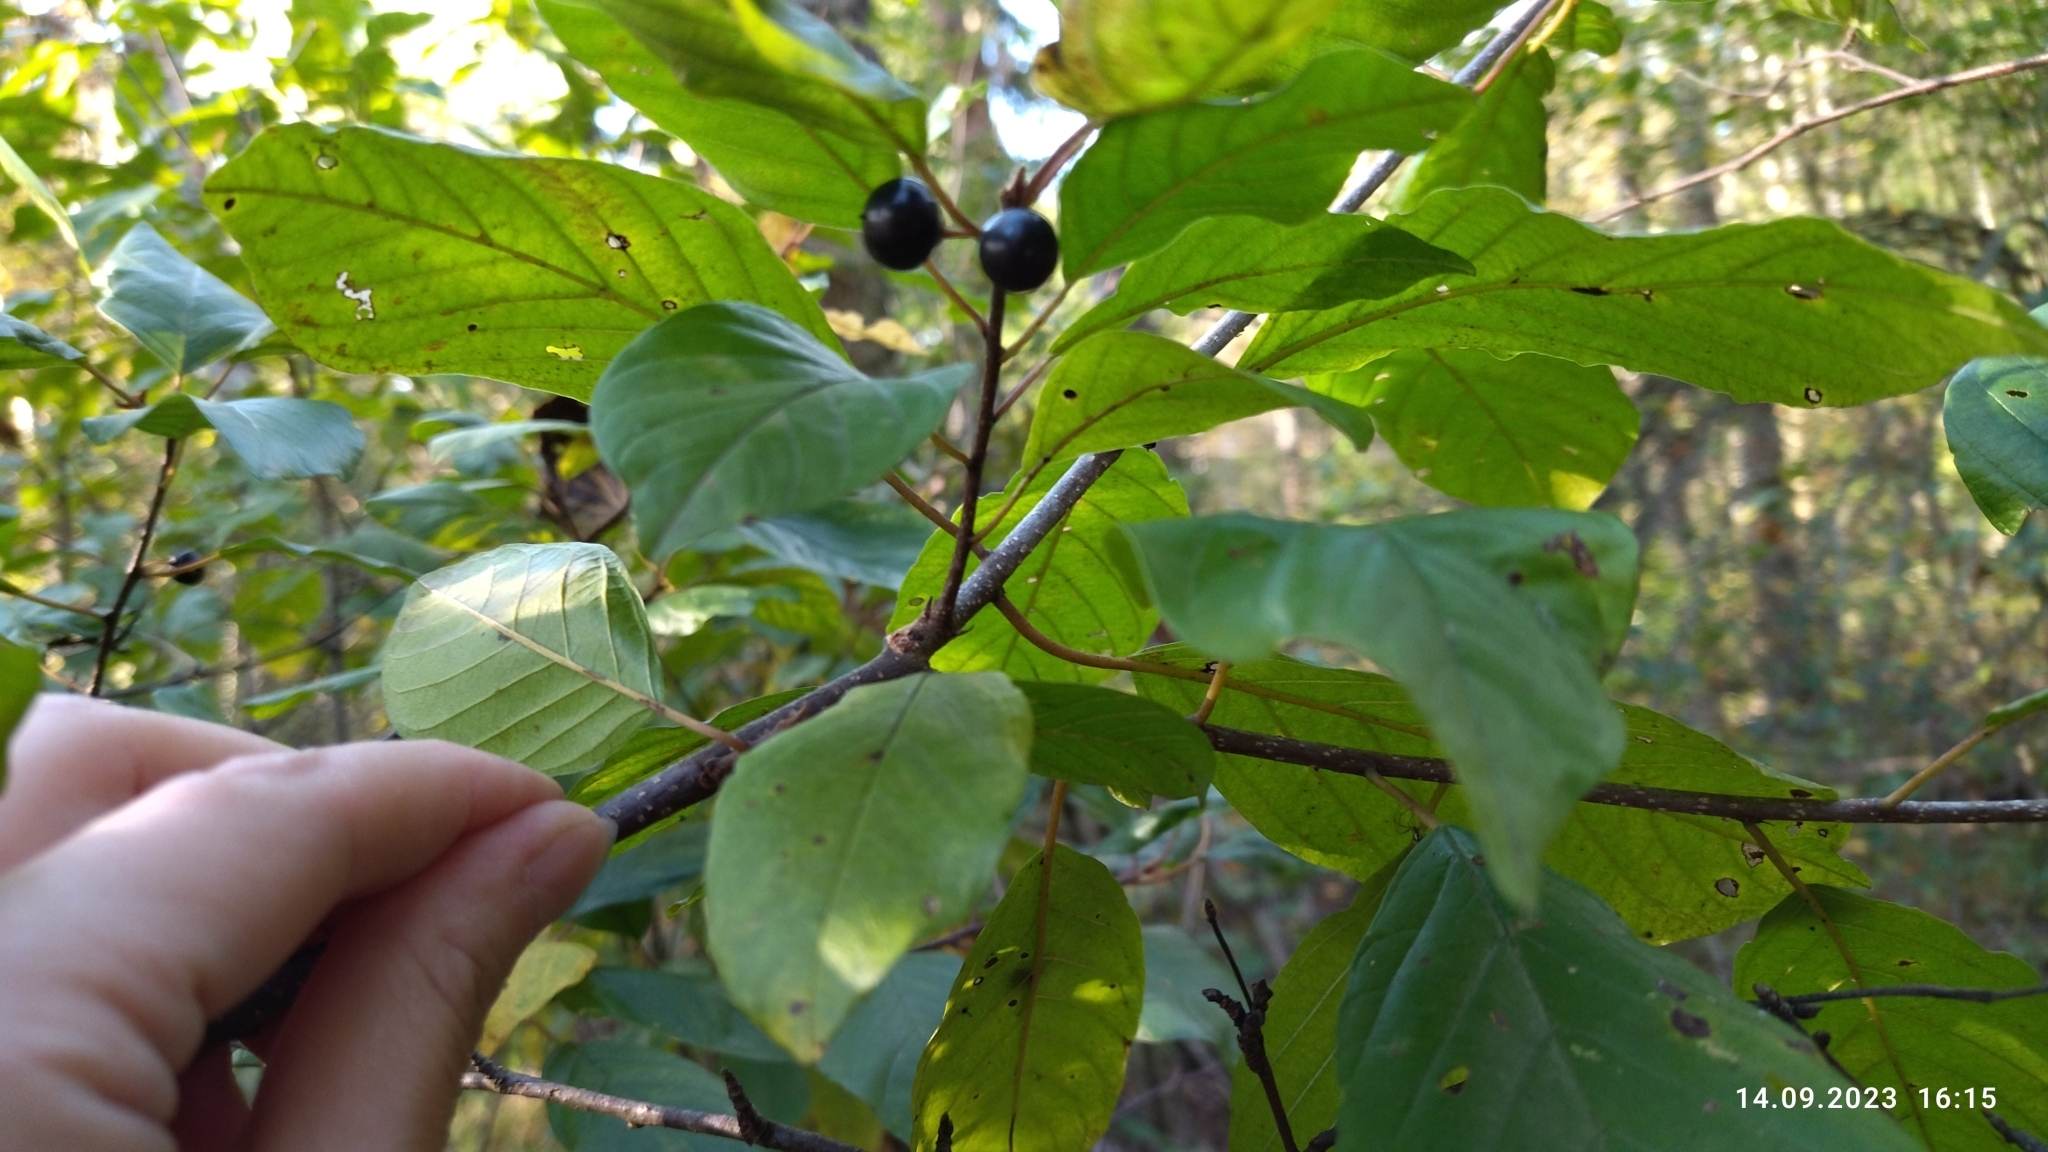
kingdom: Plantae
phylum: Tracheophyta
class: Magnoliopsida
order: Rosales
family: Rhamnaceae
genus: Frangula
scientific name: Frangula alnus
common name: Alder buckthorn
